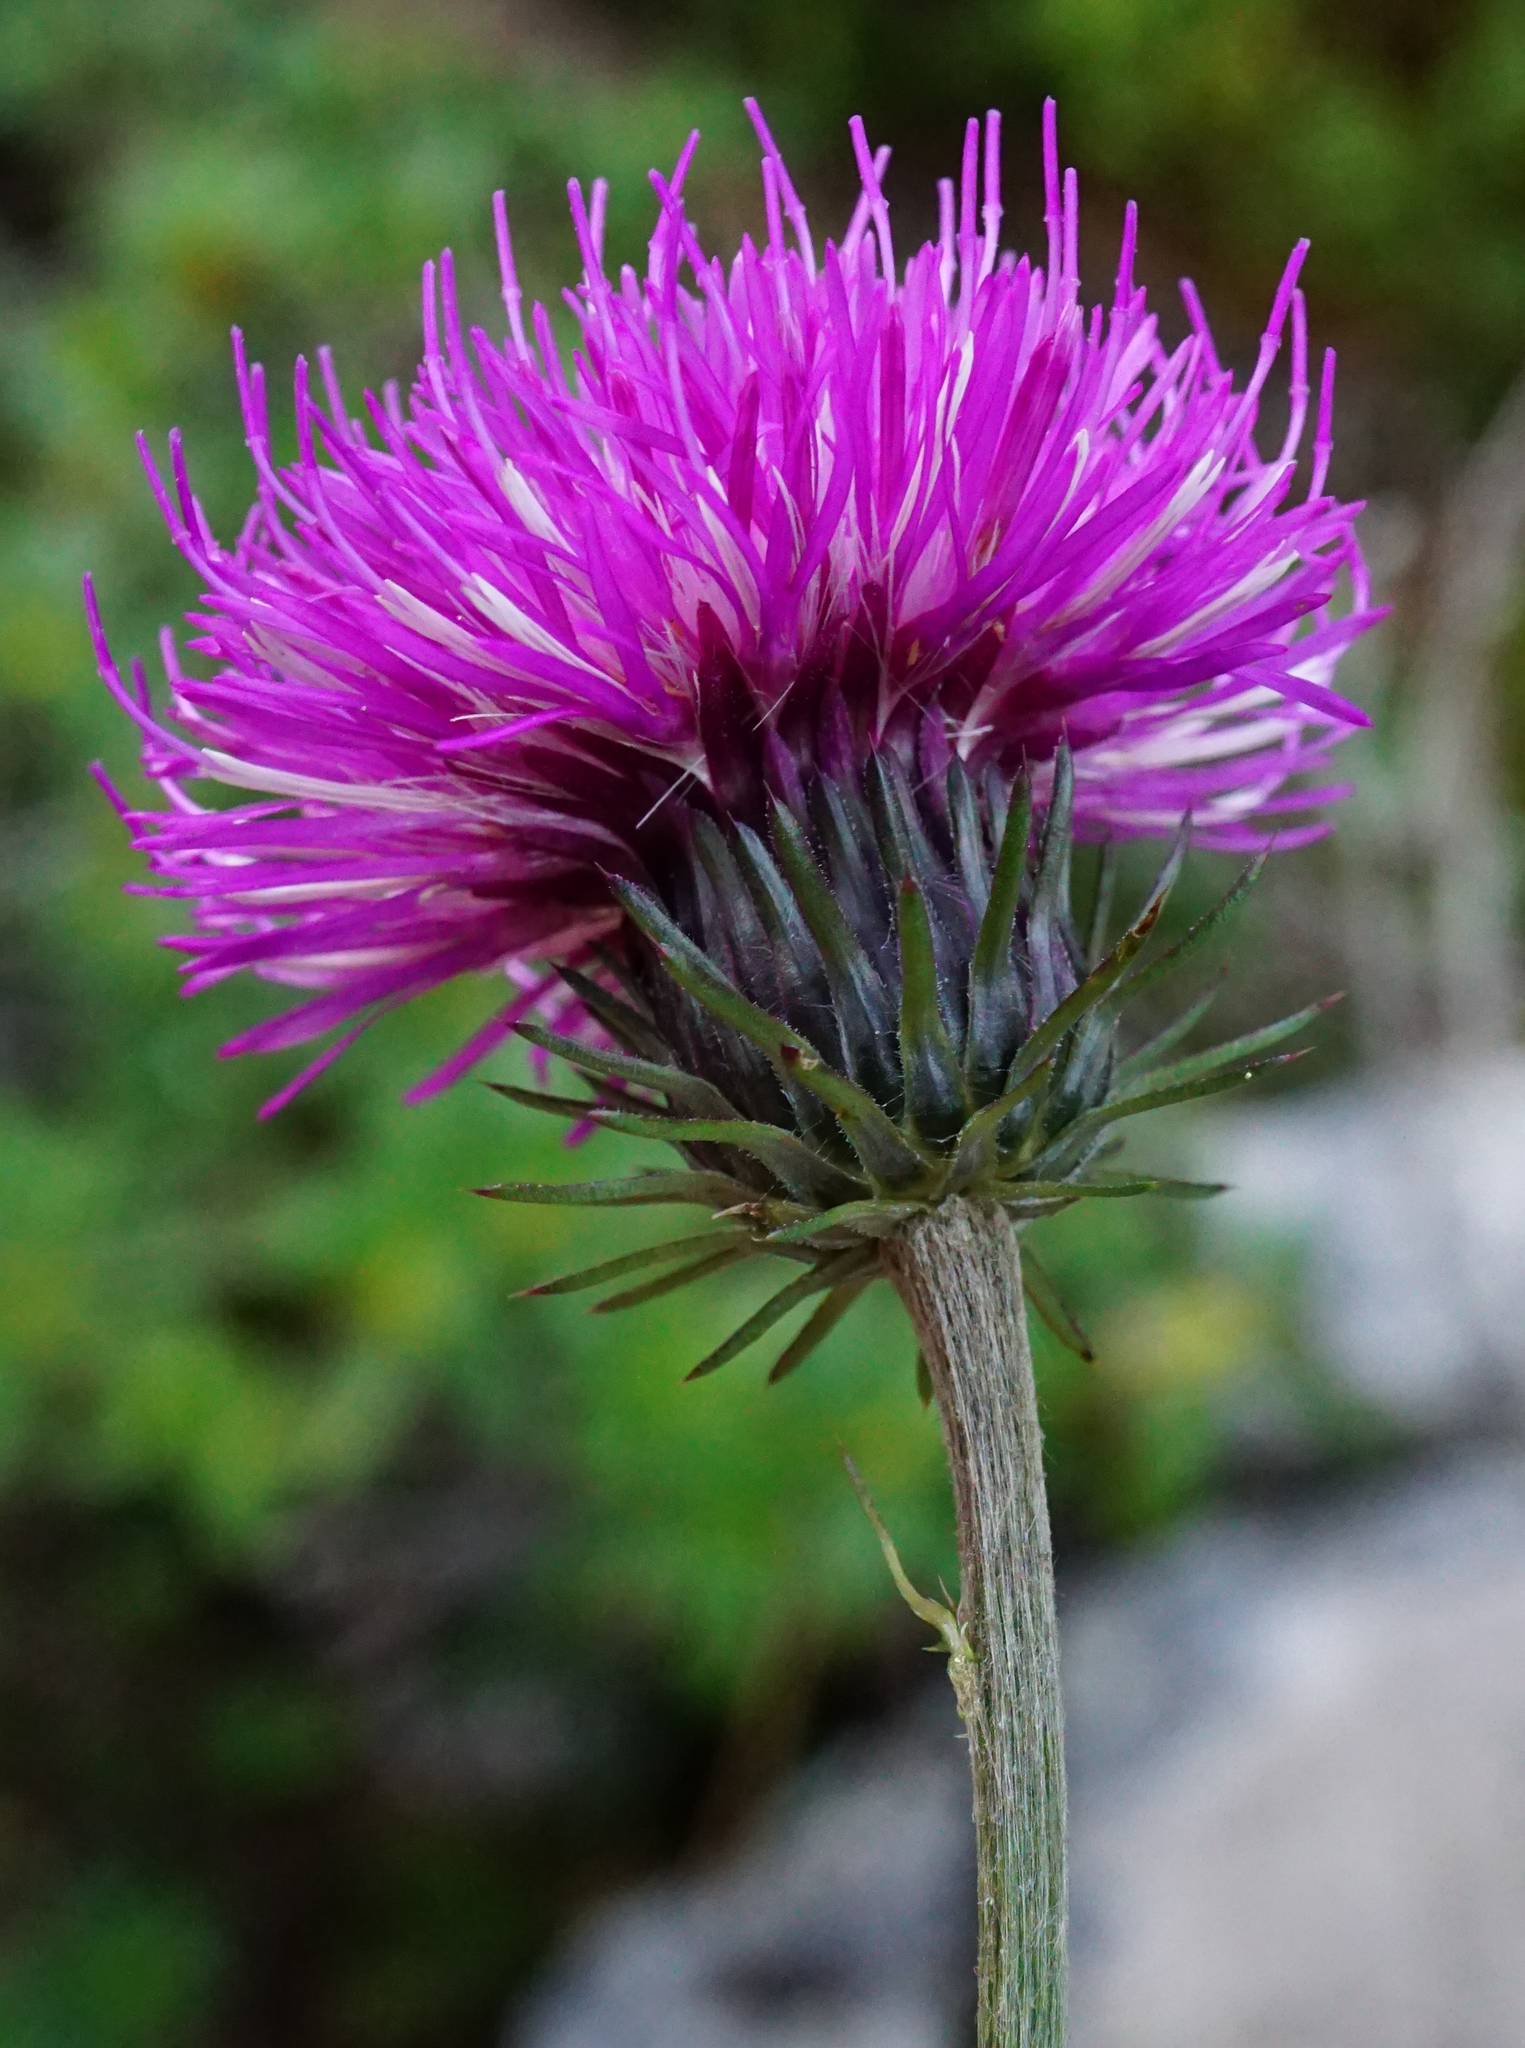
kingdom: Plantae
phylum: Tracheophyta
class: Magnoliopsida
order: Asterales
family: Asteraceae
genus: Carduus
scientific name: Carduus defloratus
